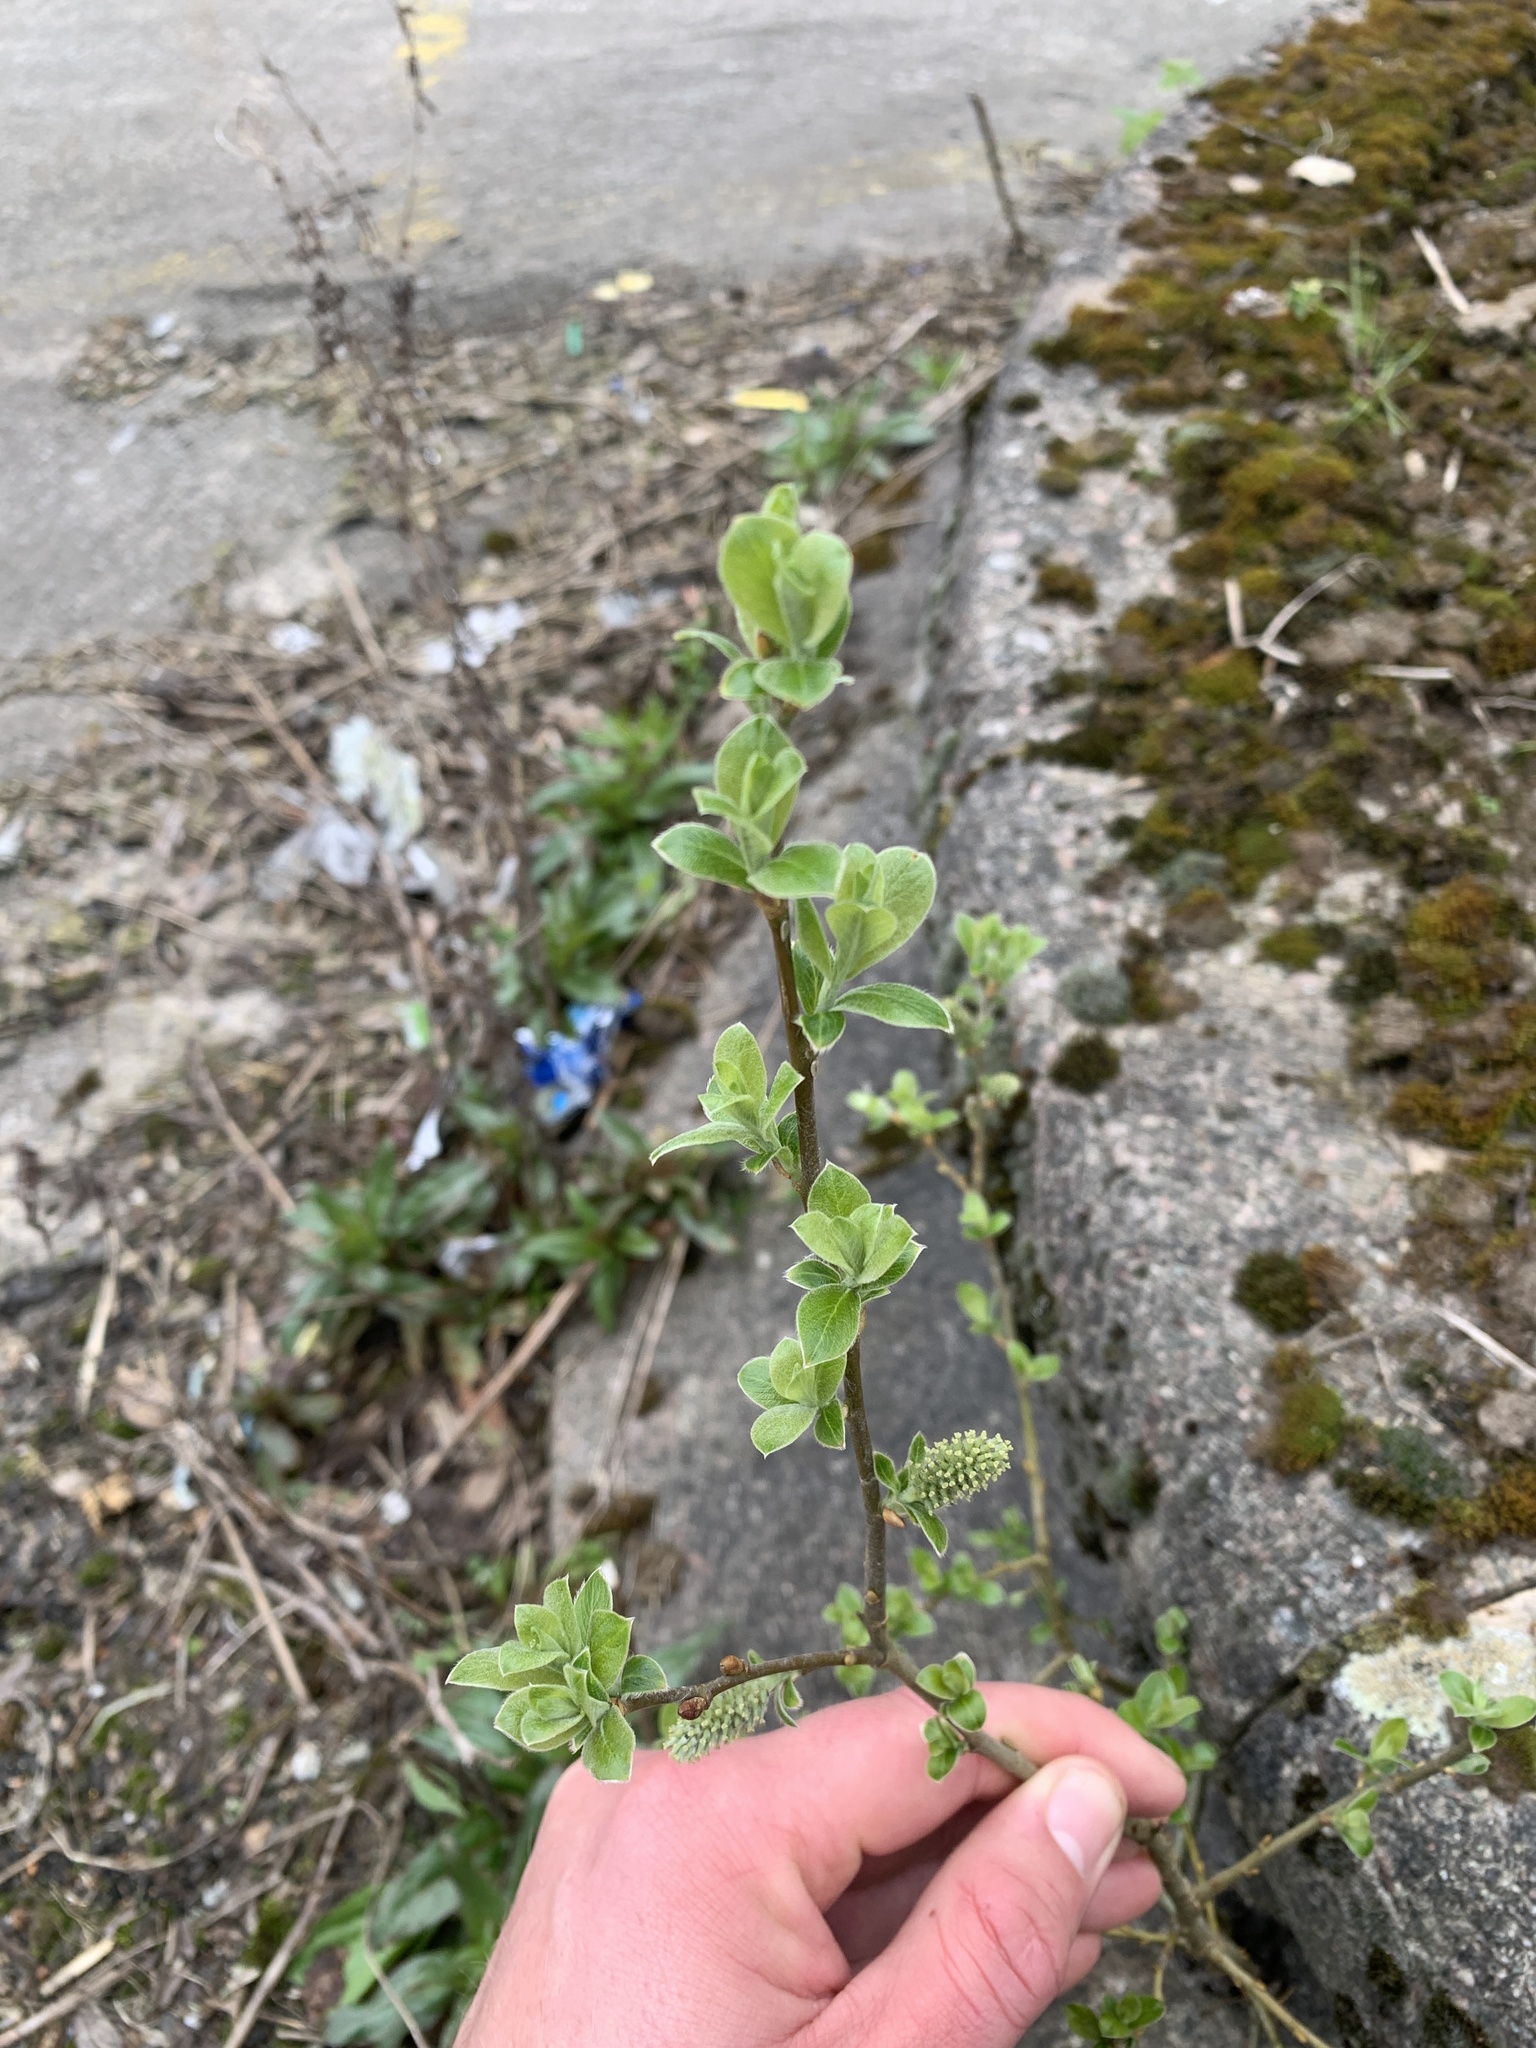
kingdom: Plantae
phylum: Tracheophyta
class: Magnoliopsida
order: Malpighiales
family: Salicaceae
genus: Salix
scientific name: Salix aurita
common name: Eared willow
